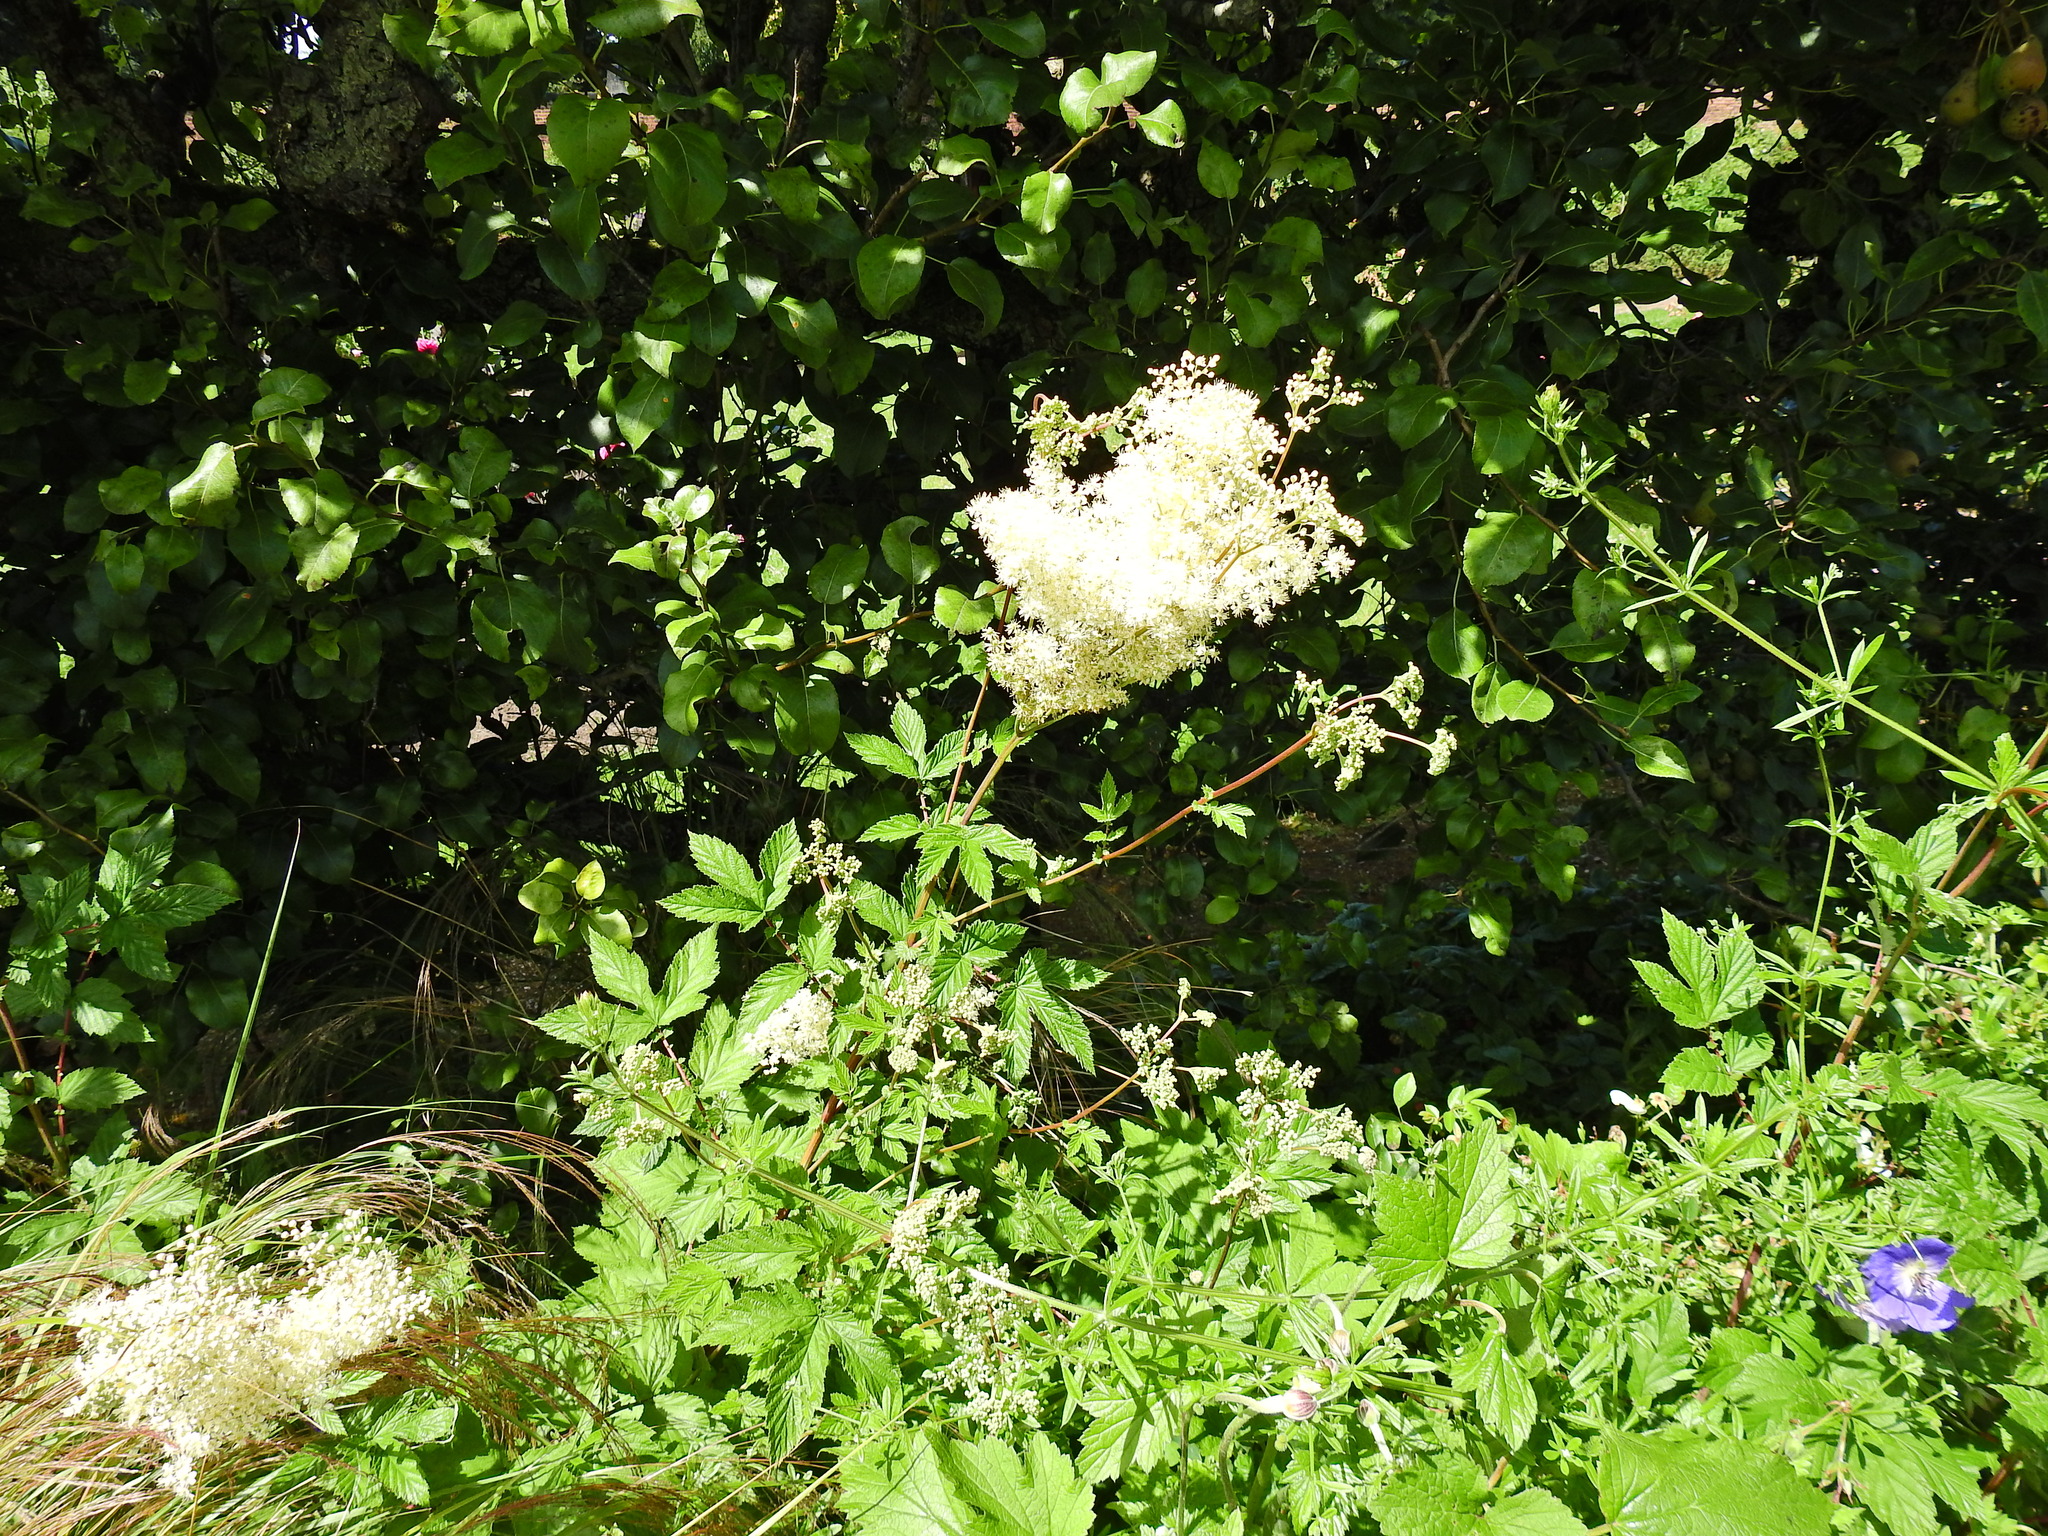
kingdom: Plantae
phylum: Tracheophyta
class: Magnoliopsida
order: Rosales
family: Rosaceae
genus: Filipendula
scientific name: Filipendula ulmaria
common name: Meadowsweet
